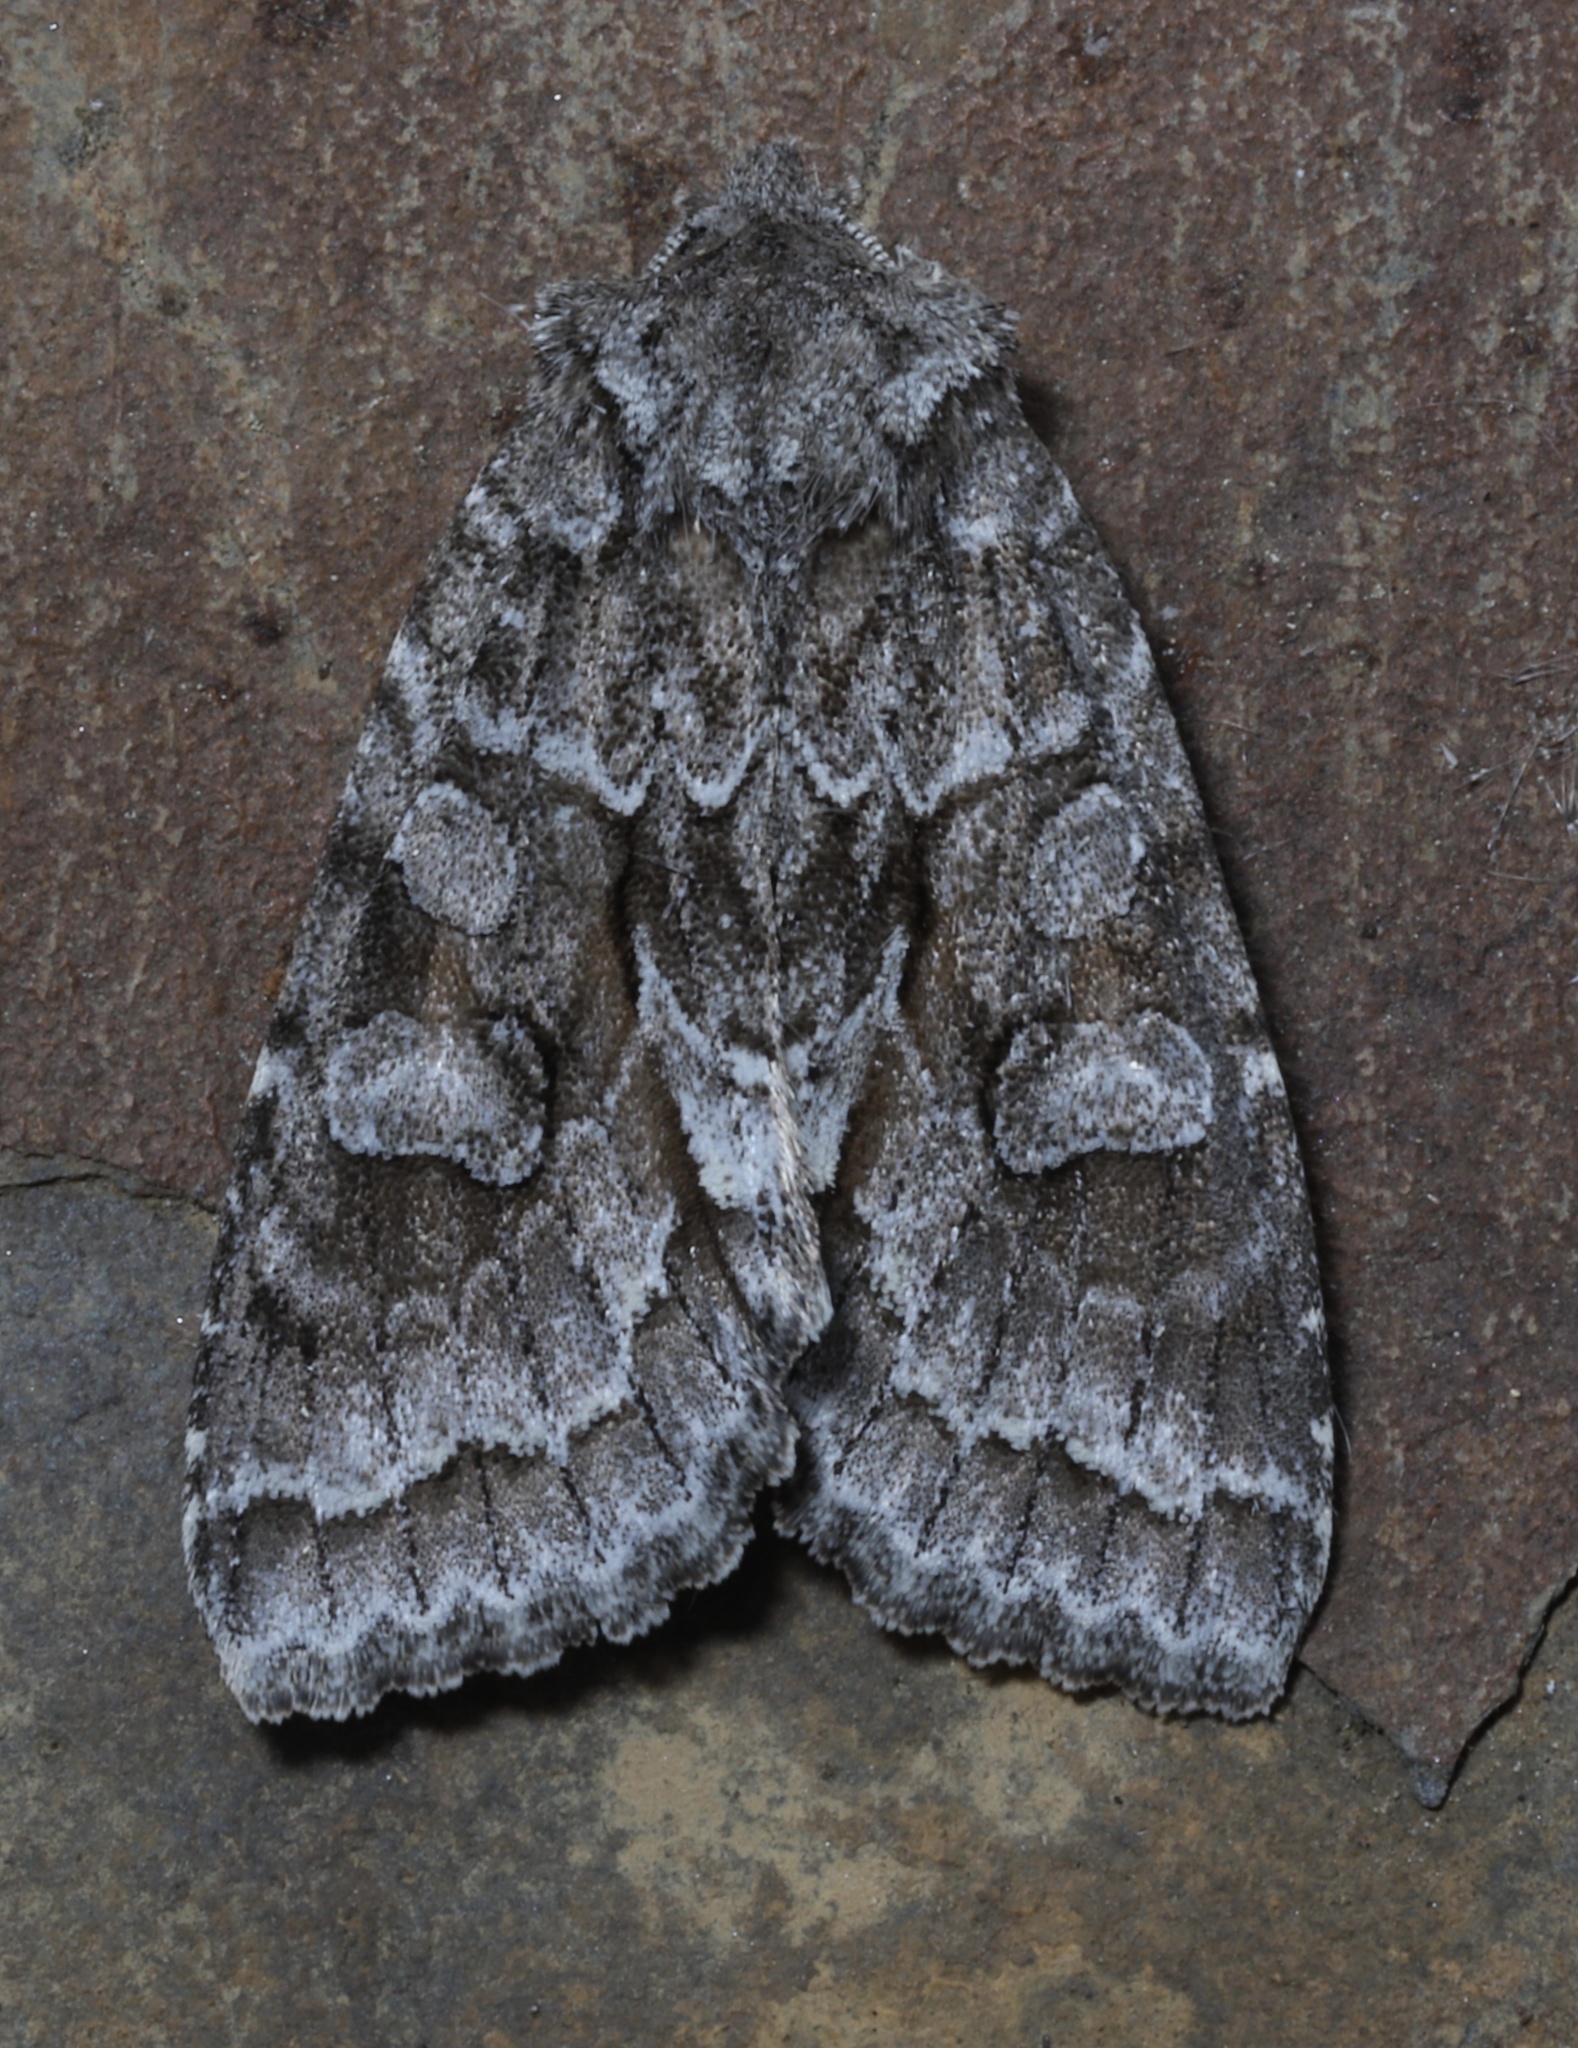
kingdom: Animalia
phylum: Arthropoda
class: Insecta
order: Lepidoptera
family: Noctuidae
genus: Xylotype
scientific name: Xylotype arcadia
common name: Acadian sallow
